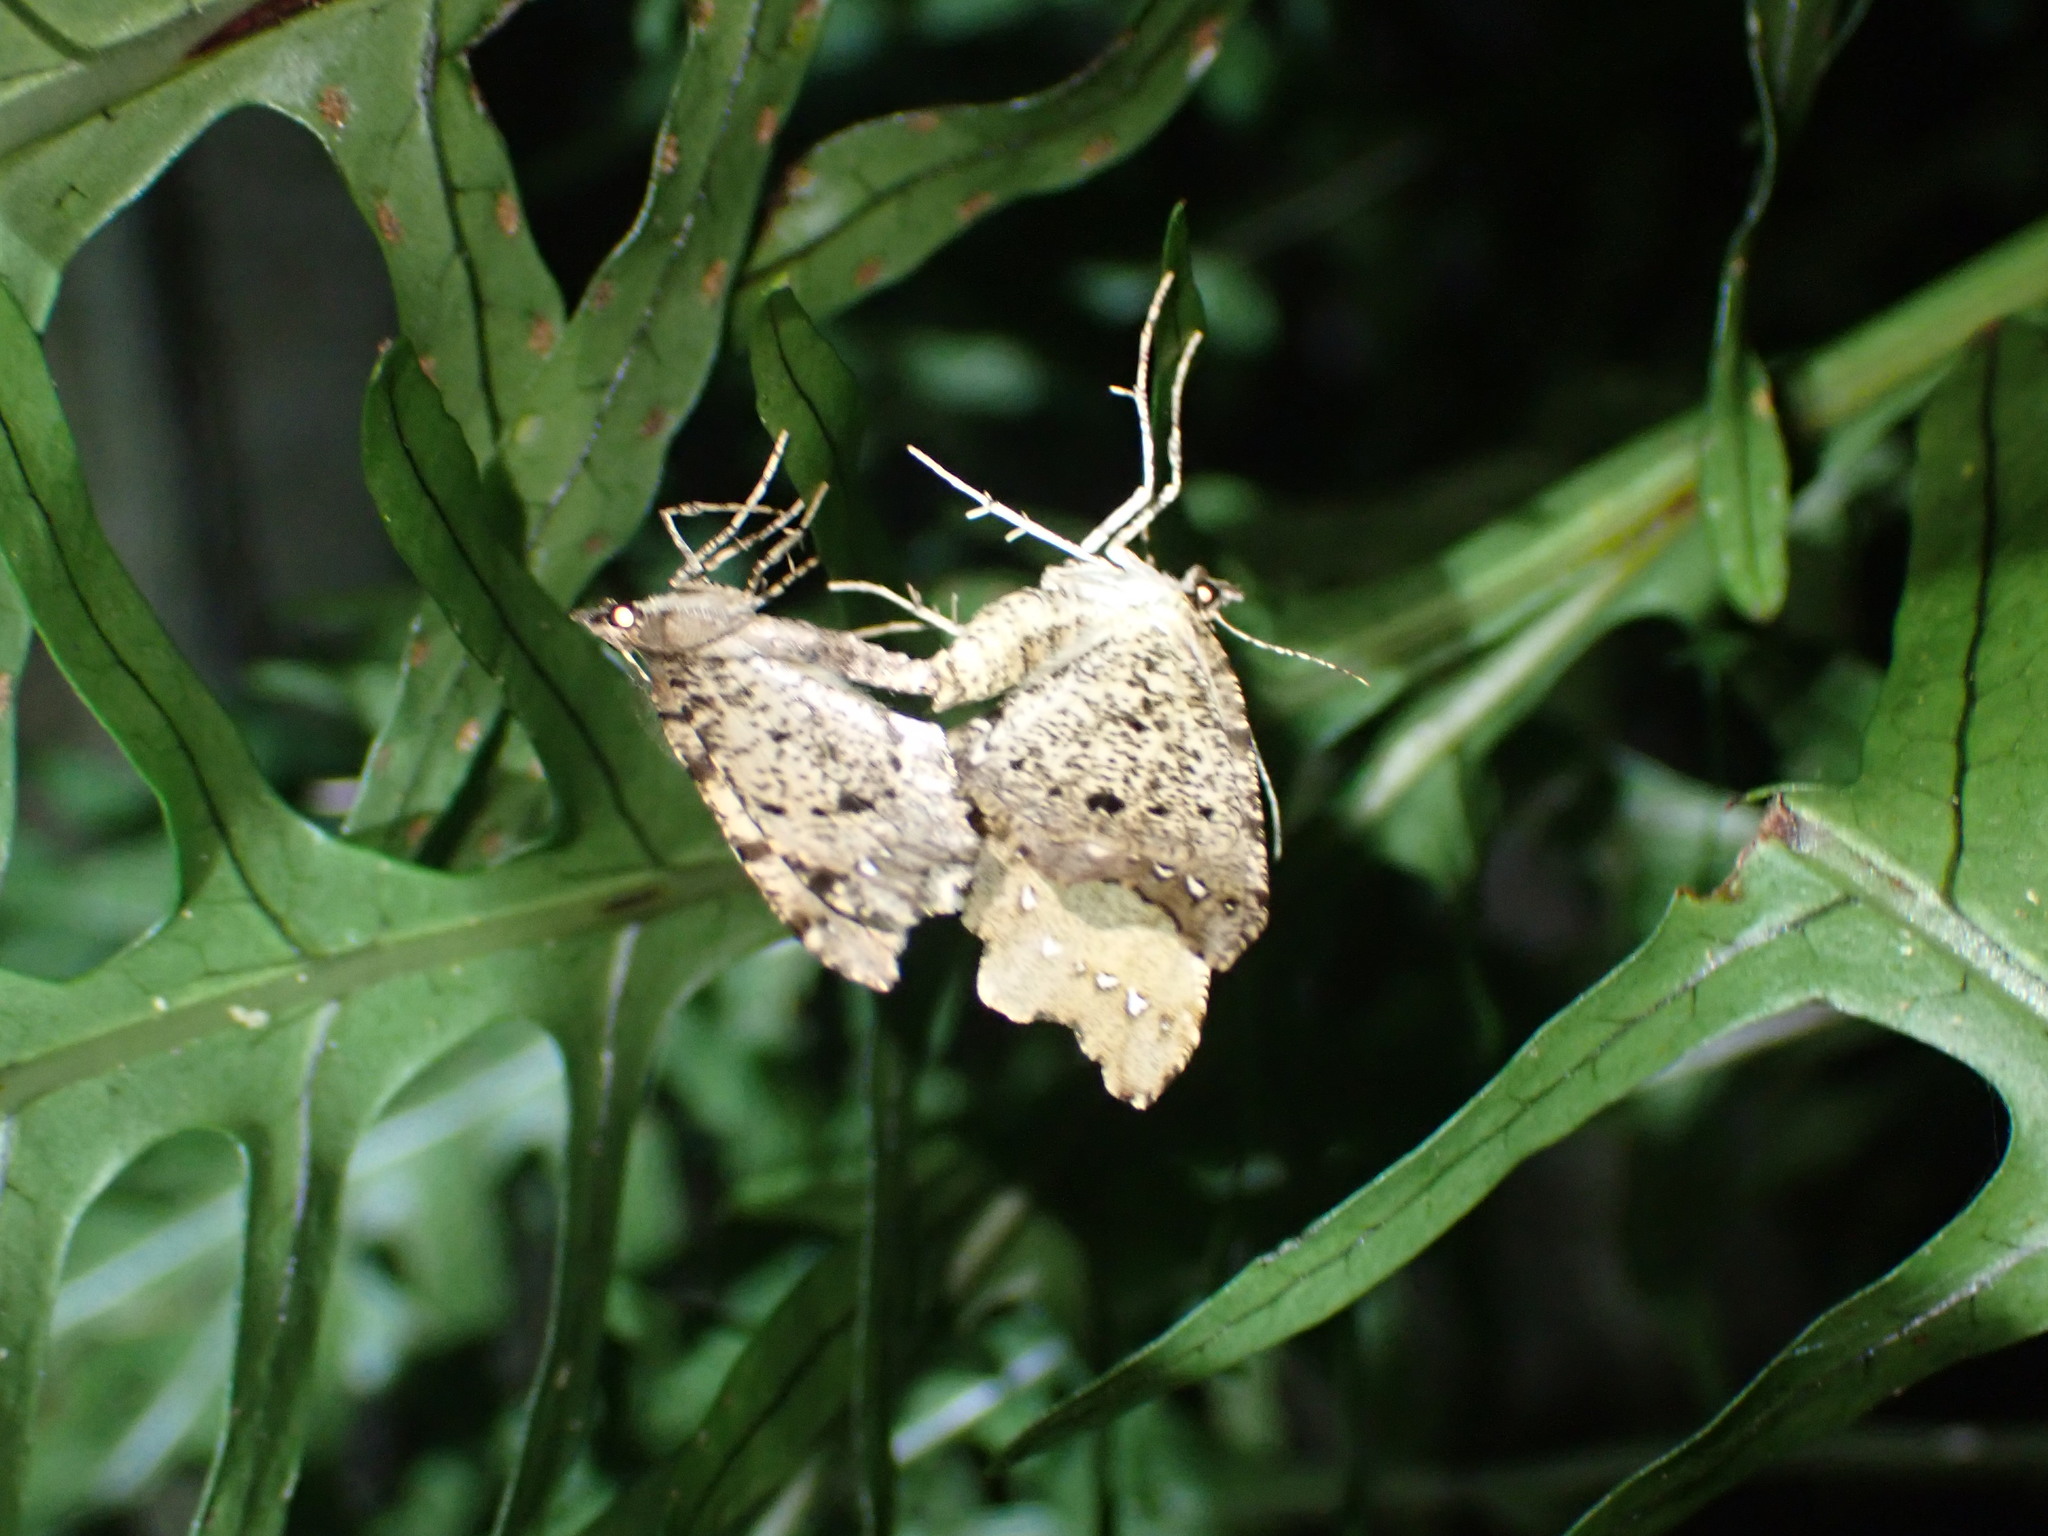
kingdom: Animalia
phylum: Arthropoda
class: Insecta
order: Lepidoptera
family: Geometridae
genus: Chalastra
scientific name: Chalastra pellurgata
